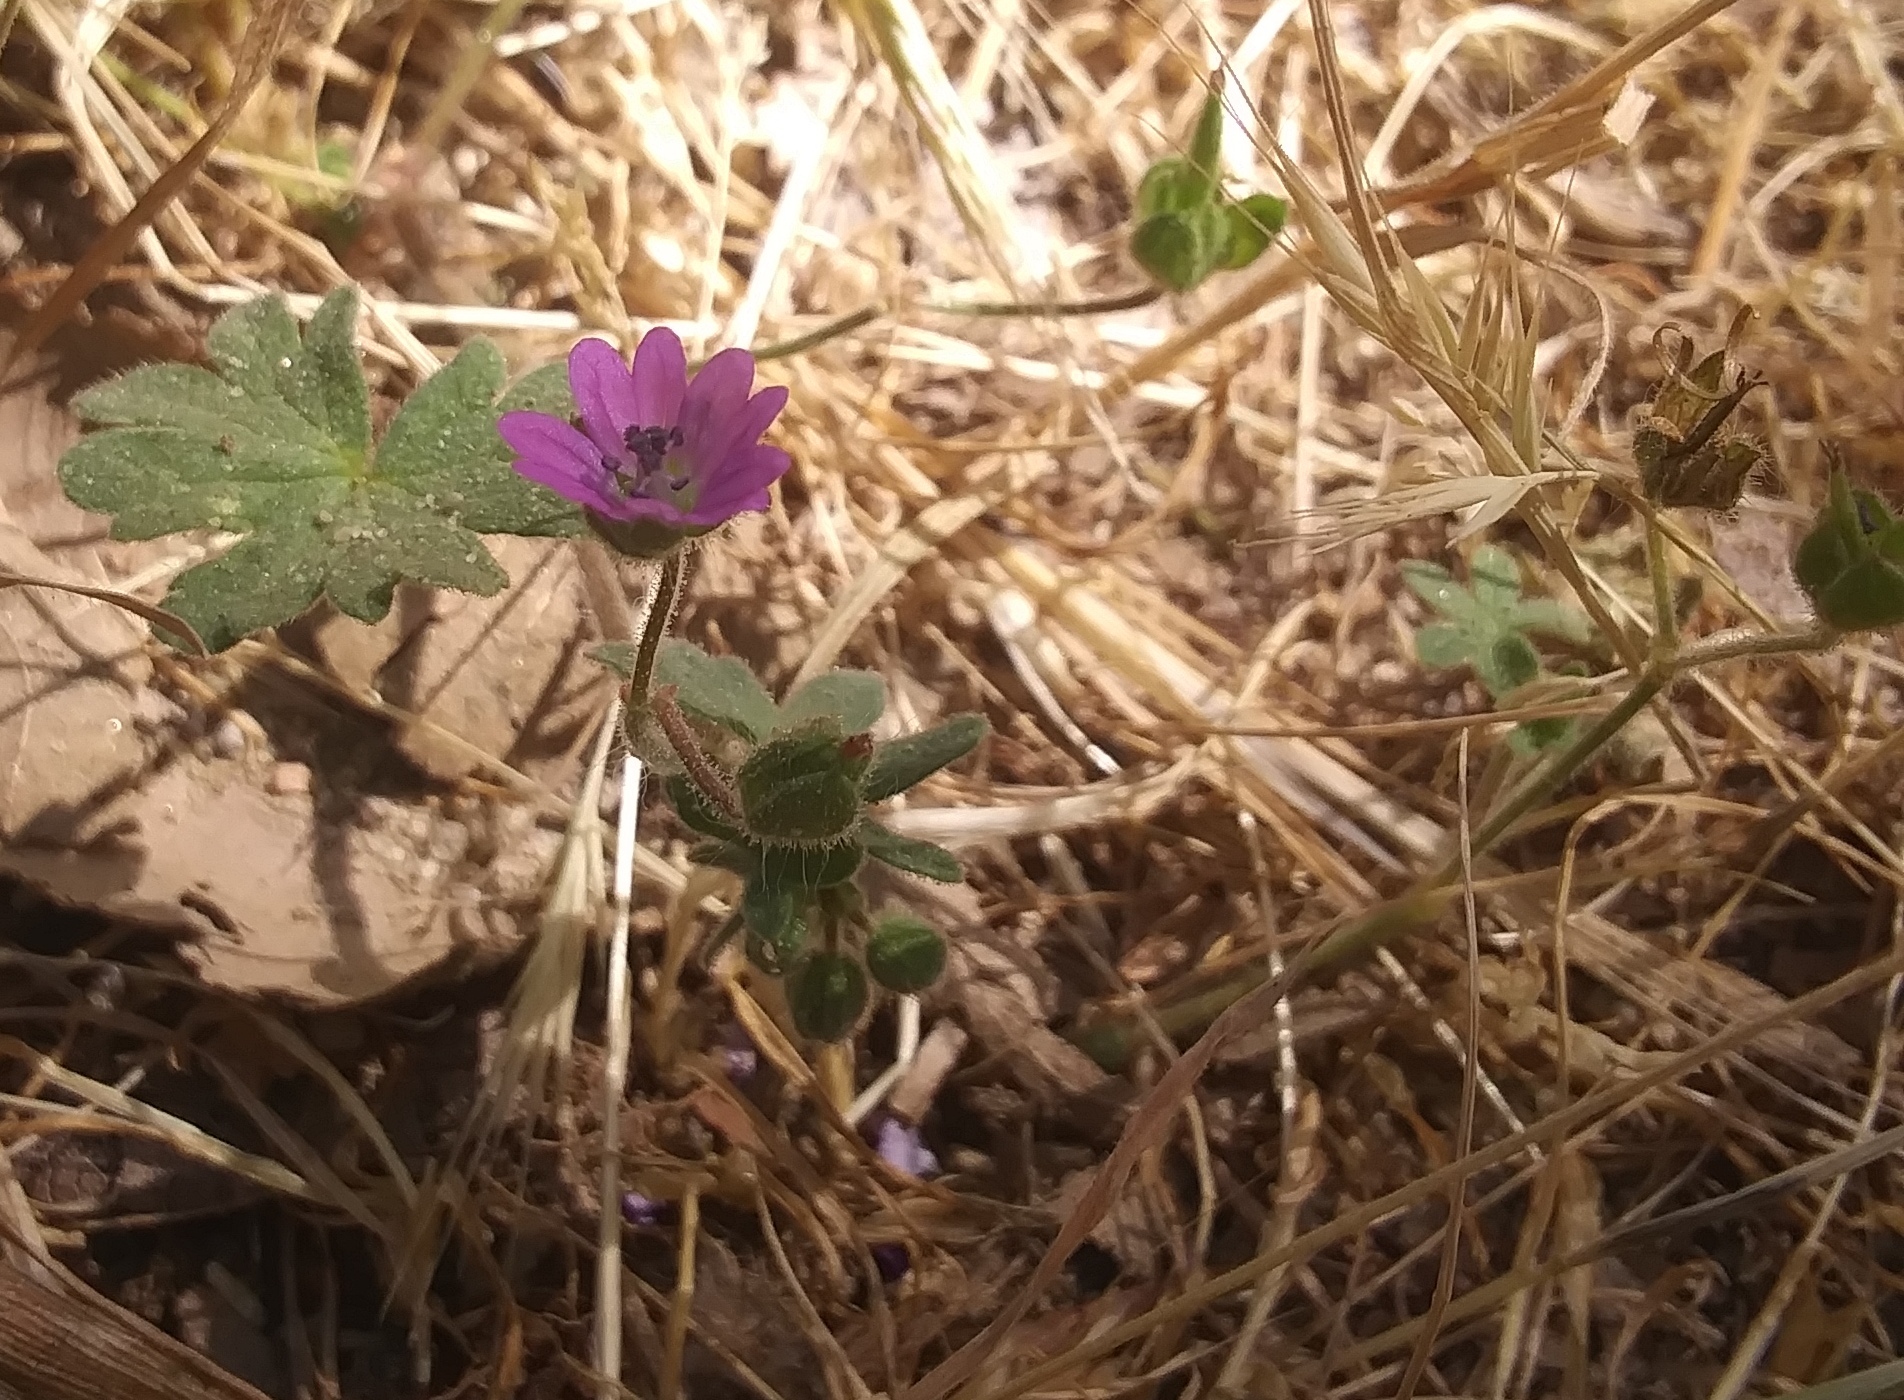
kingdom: Plantae
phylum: Tracheophyta
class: Magnoliopsida
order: Geraniales
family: Geraniaceae
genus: Geranium
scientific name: Geranium molle
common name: Dove's-foot crane's-bill
